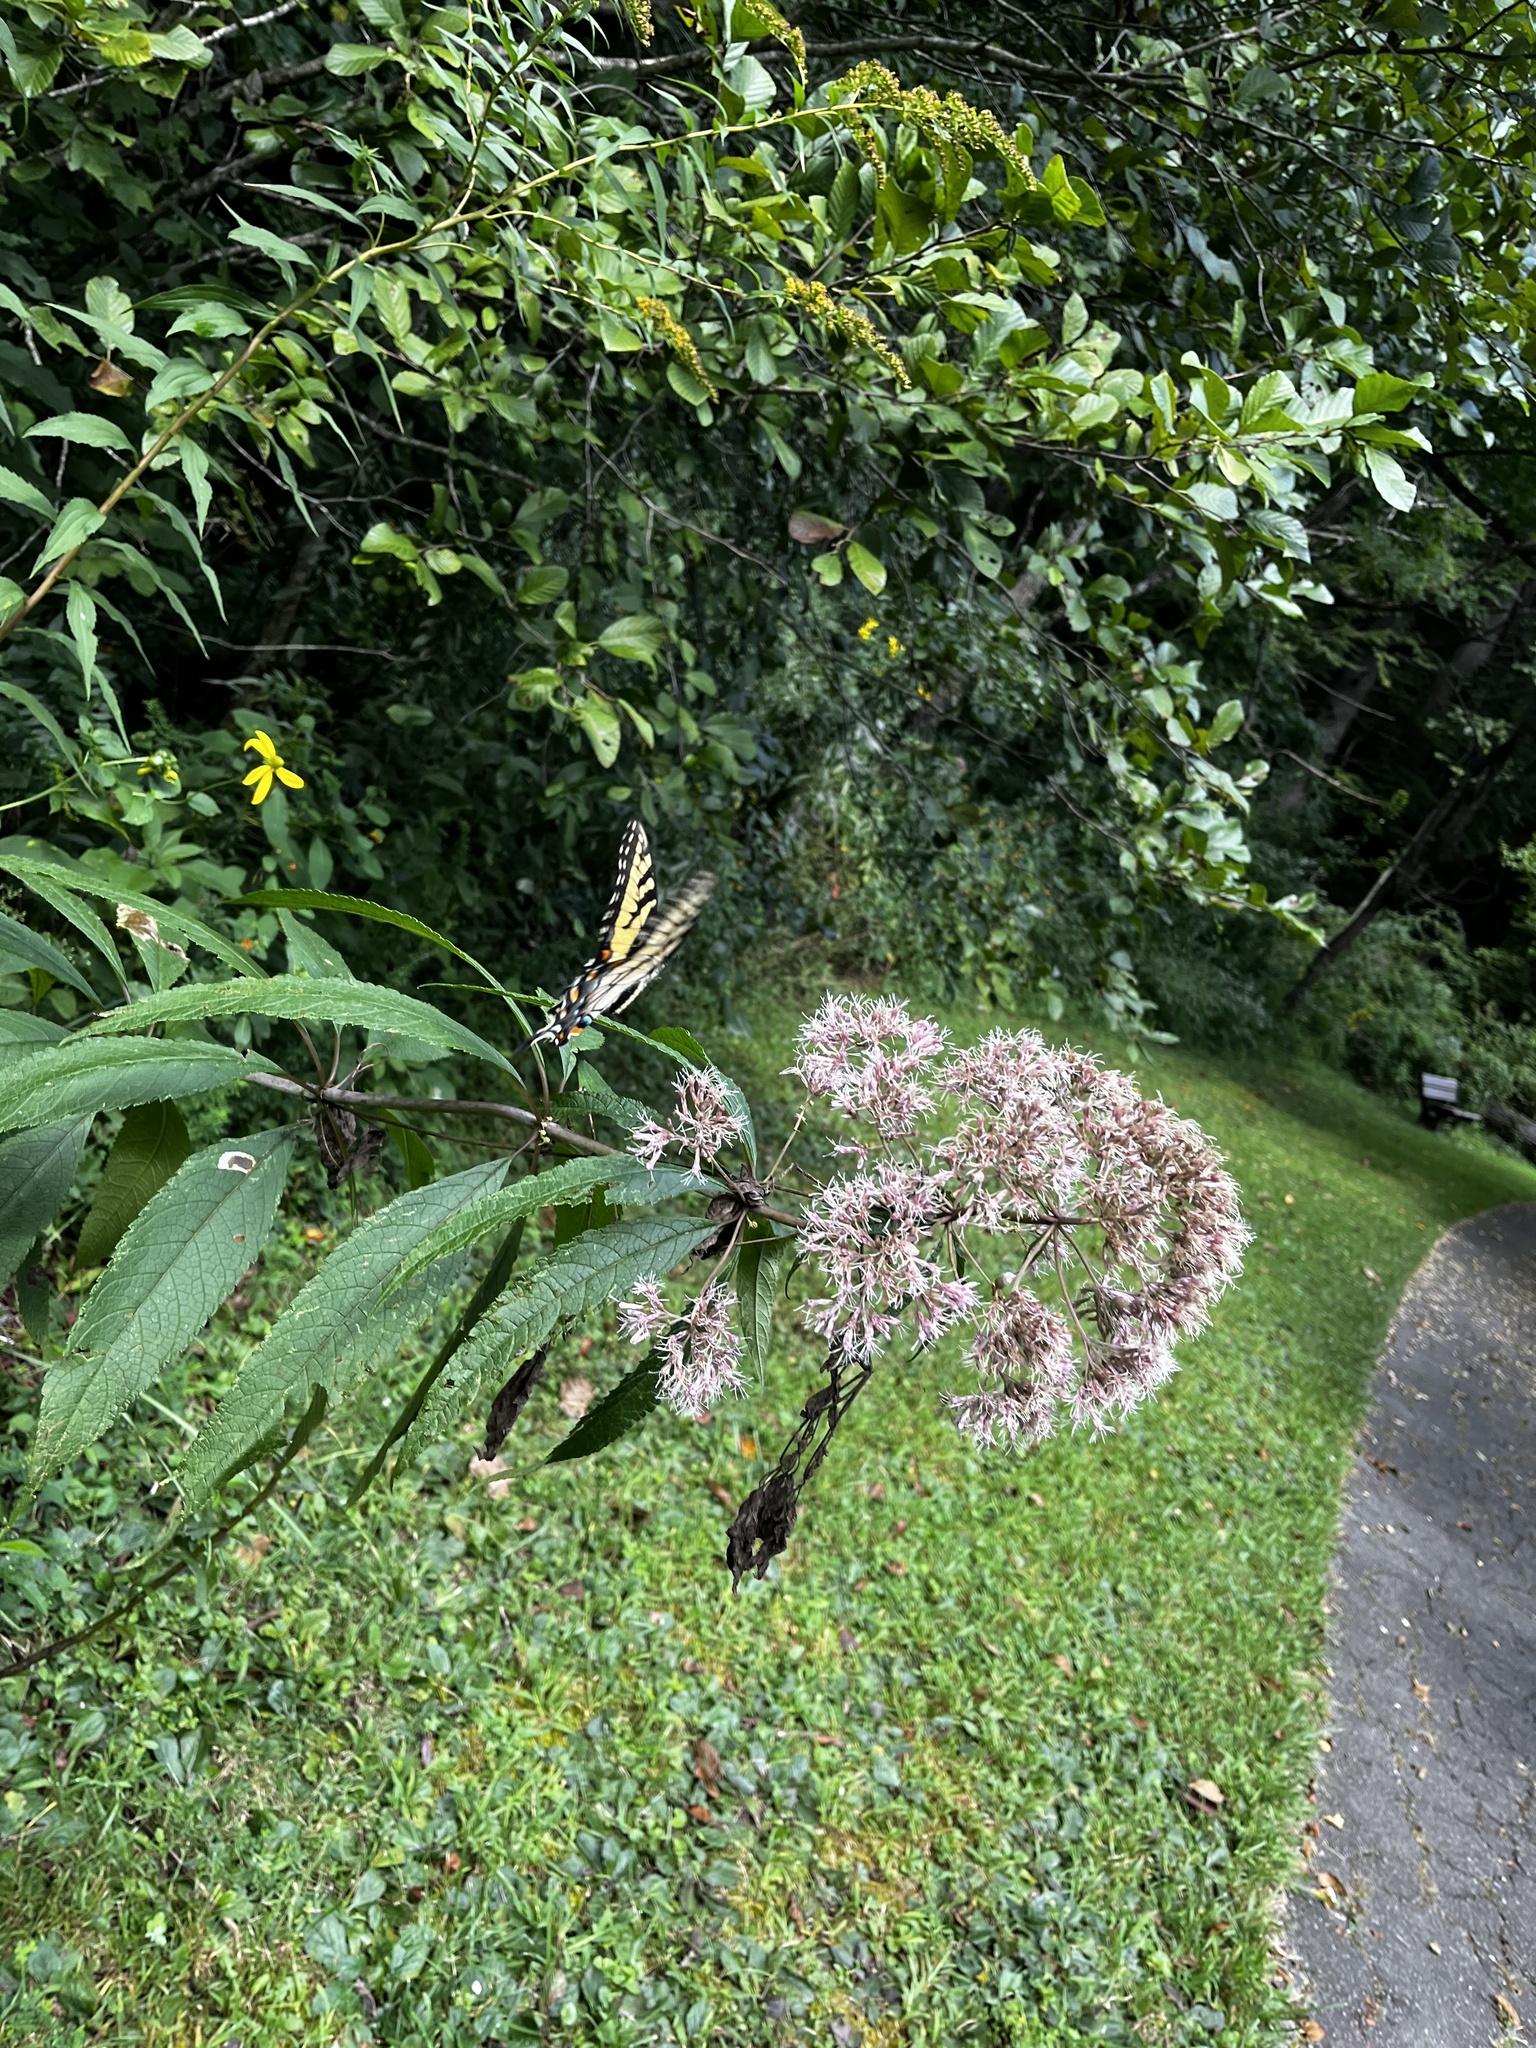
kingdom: Plantae
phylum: Tracheophyta
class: Magnoliopsida
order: Asterales
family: Asteraceae
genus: Eutrochium
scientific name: Eutrochium fistulosum
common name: Trumpetweed
